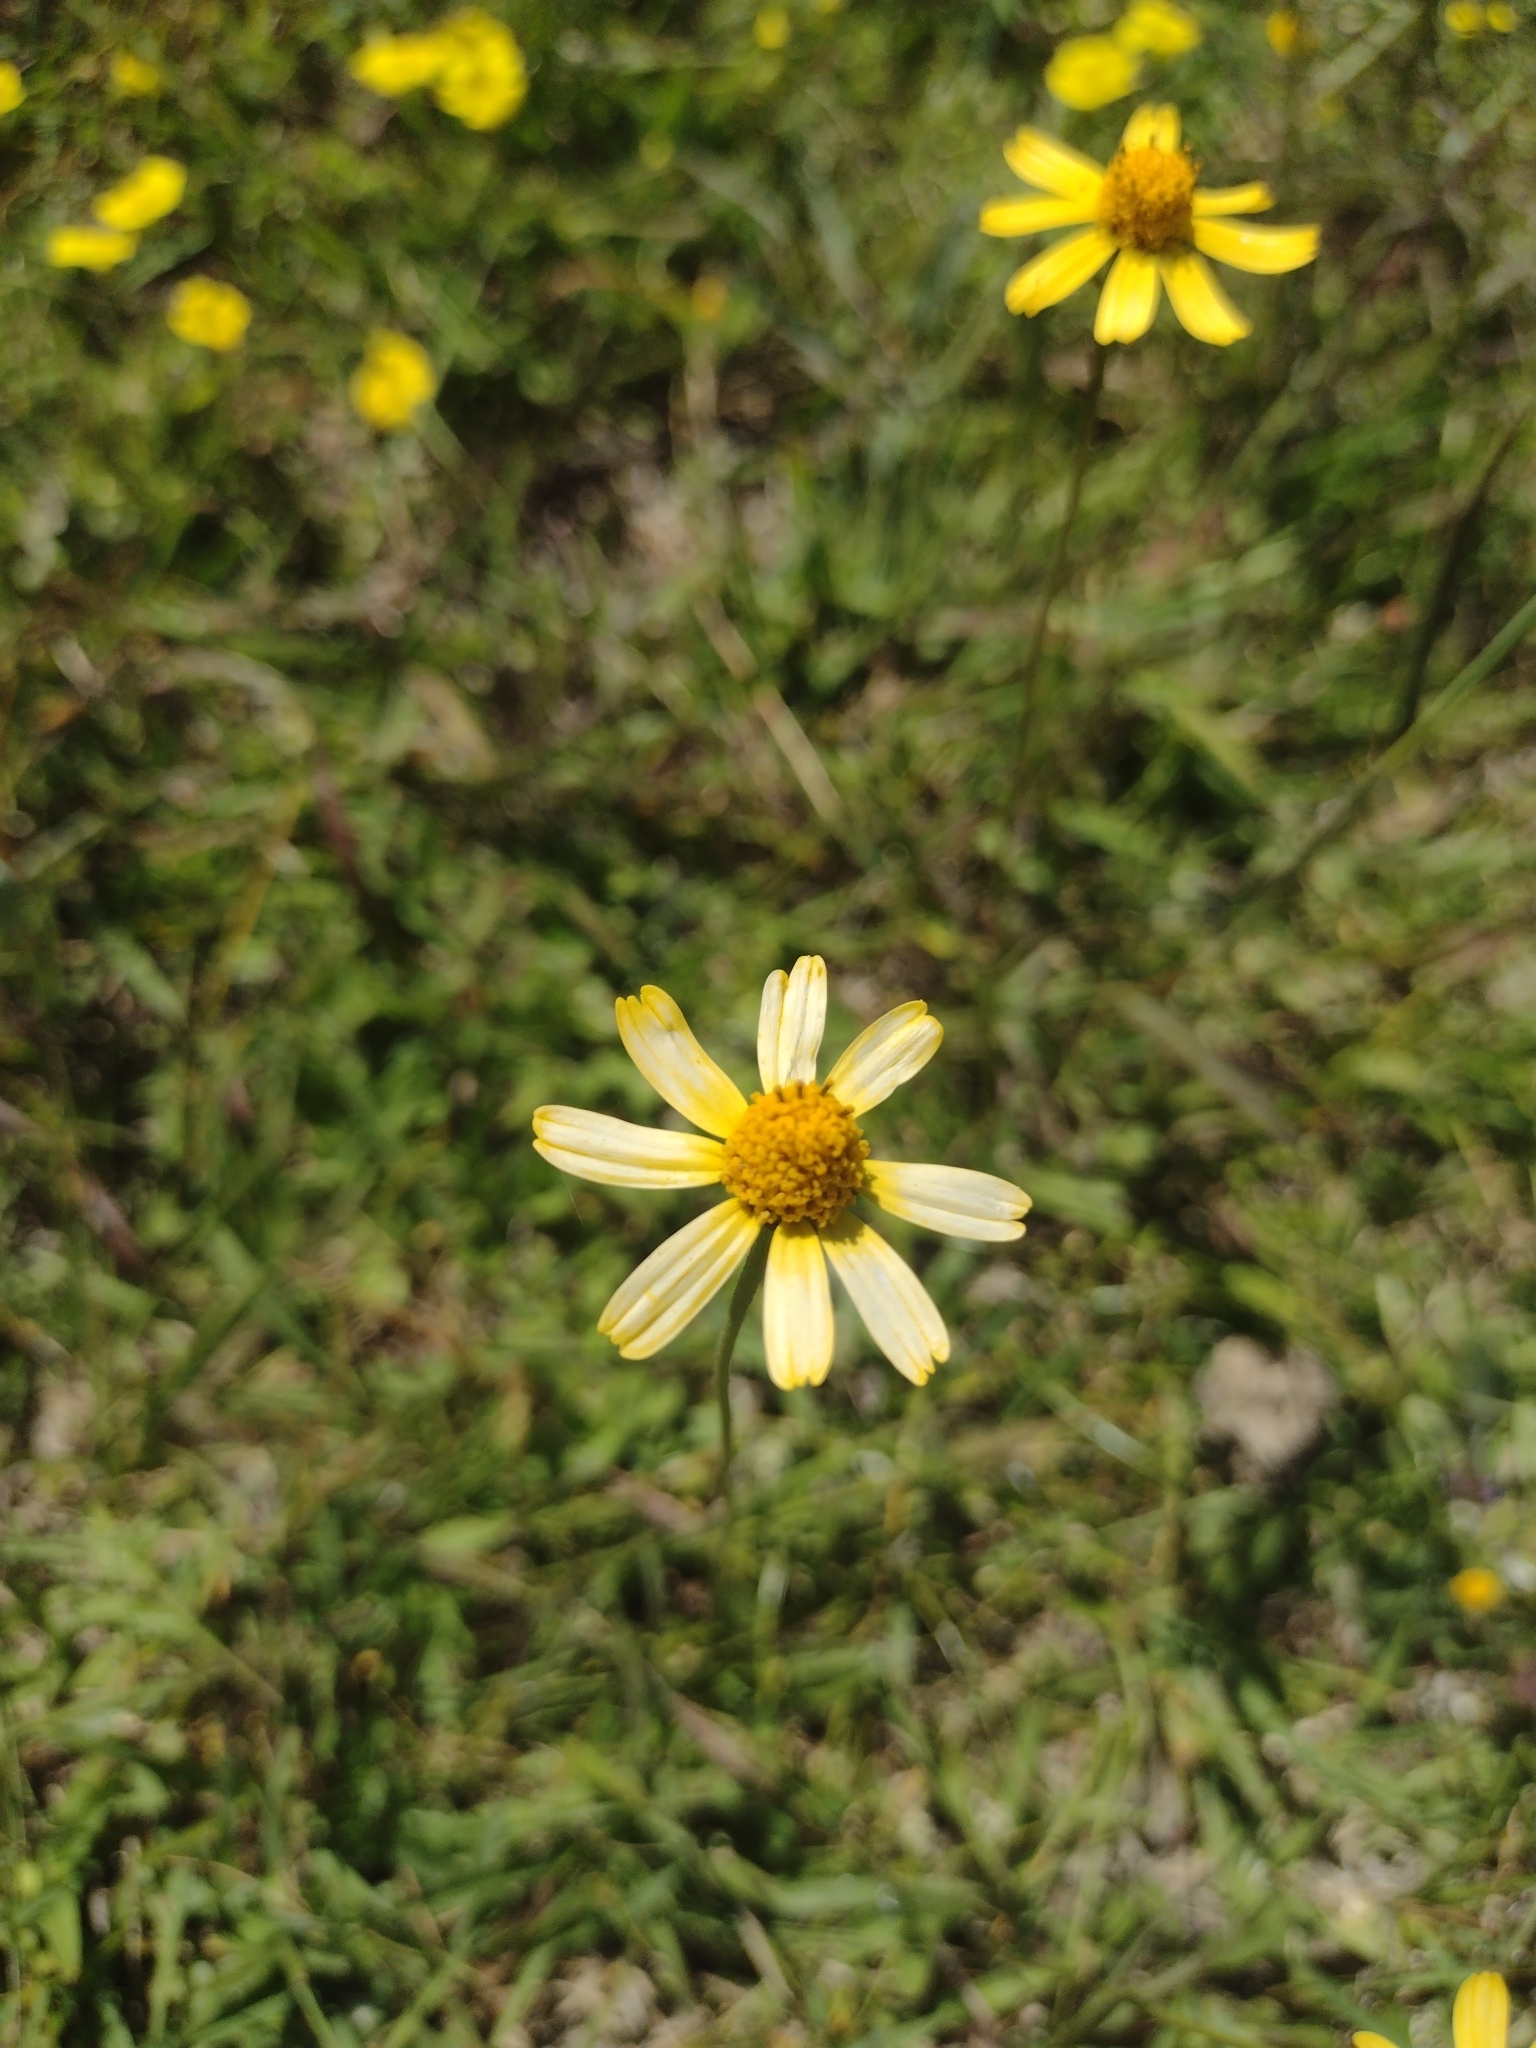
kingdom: Plantae
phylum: Tracheophyta
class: Magnoliopsida
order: Asterales
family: Asteraceae
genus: Acmella
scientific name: Acmella decumbens
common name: Creeping spotflower
